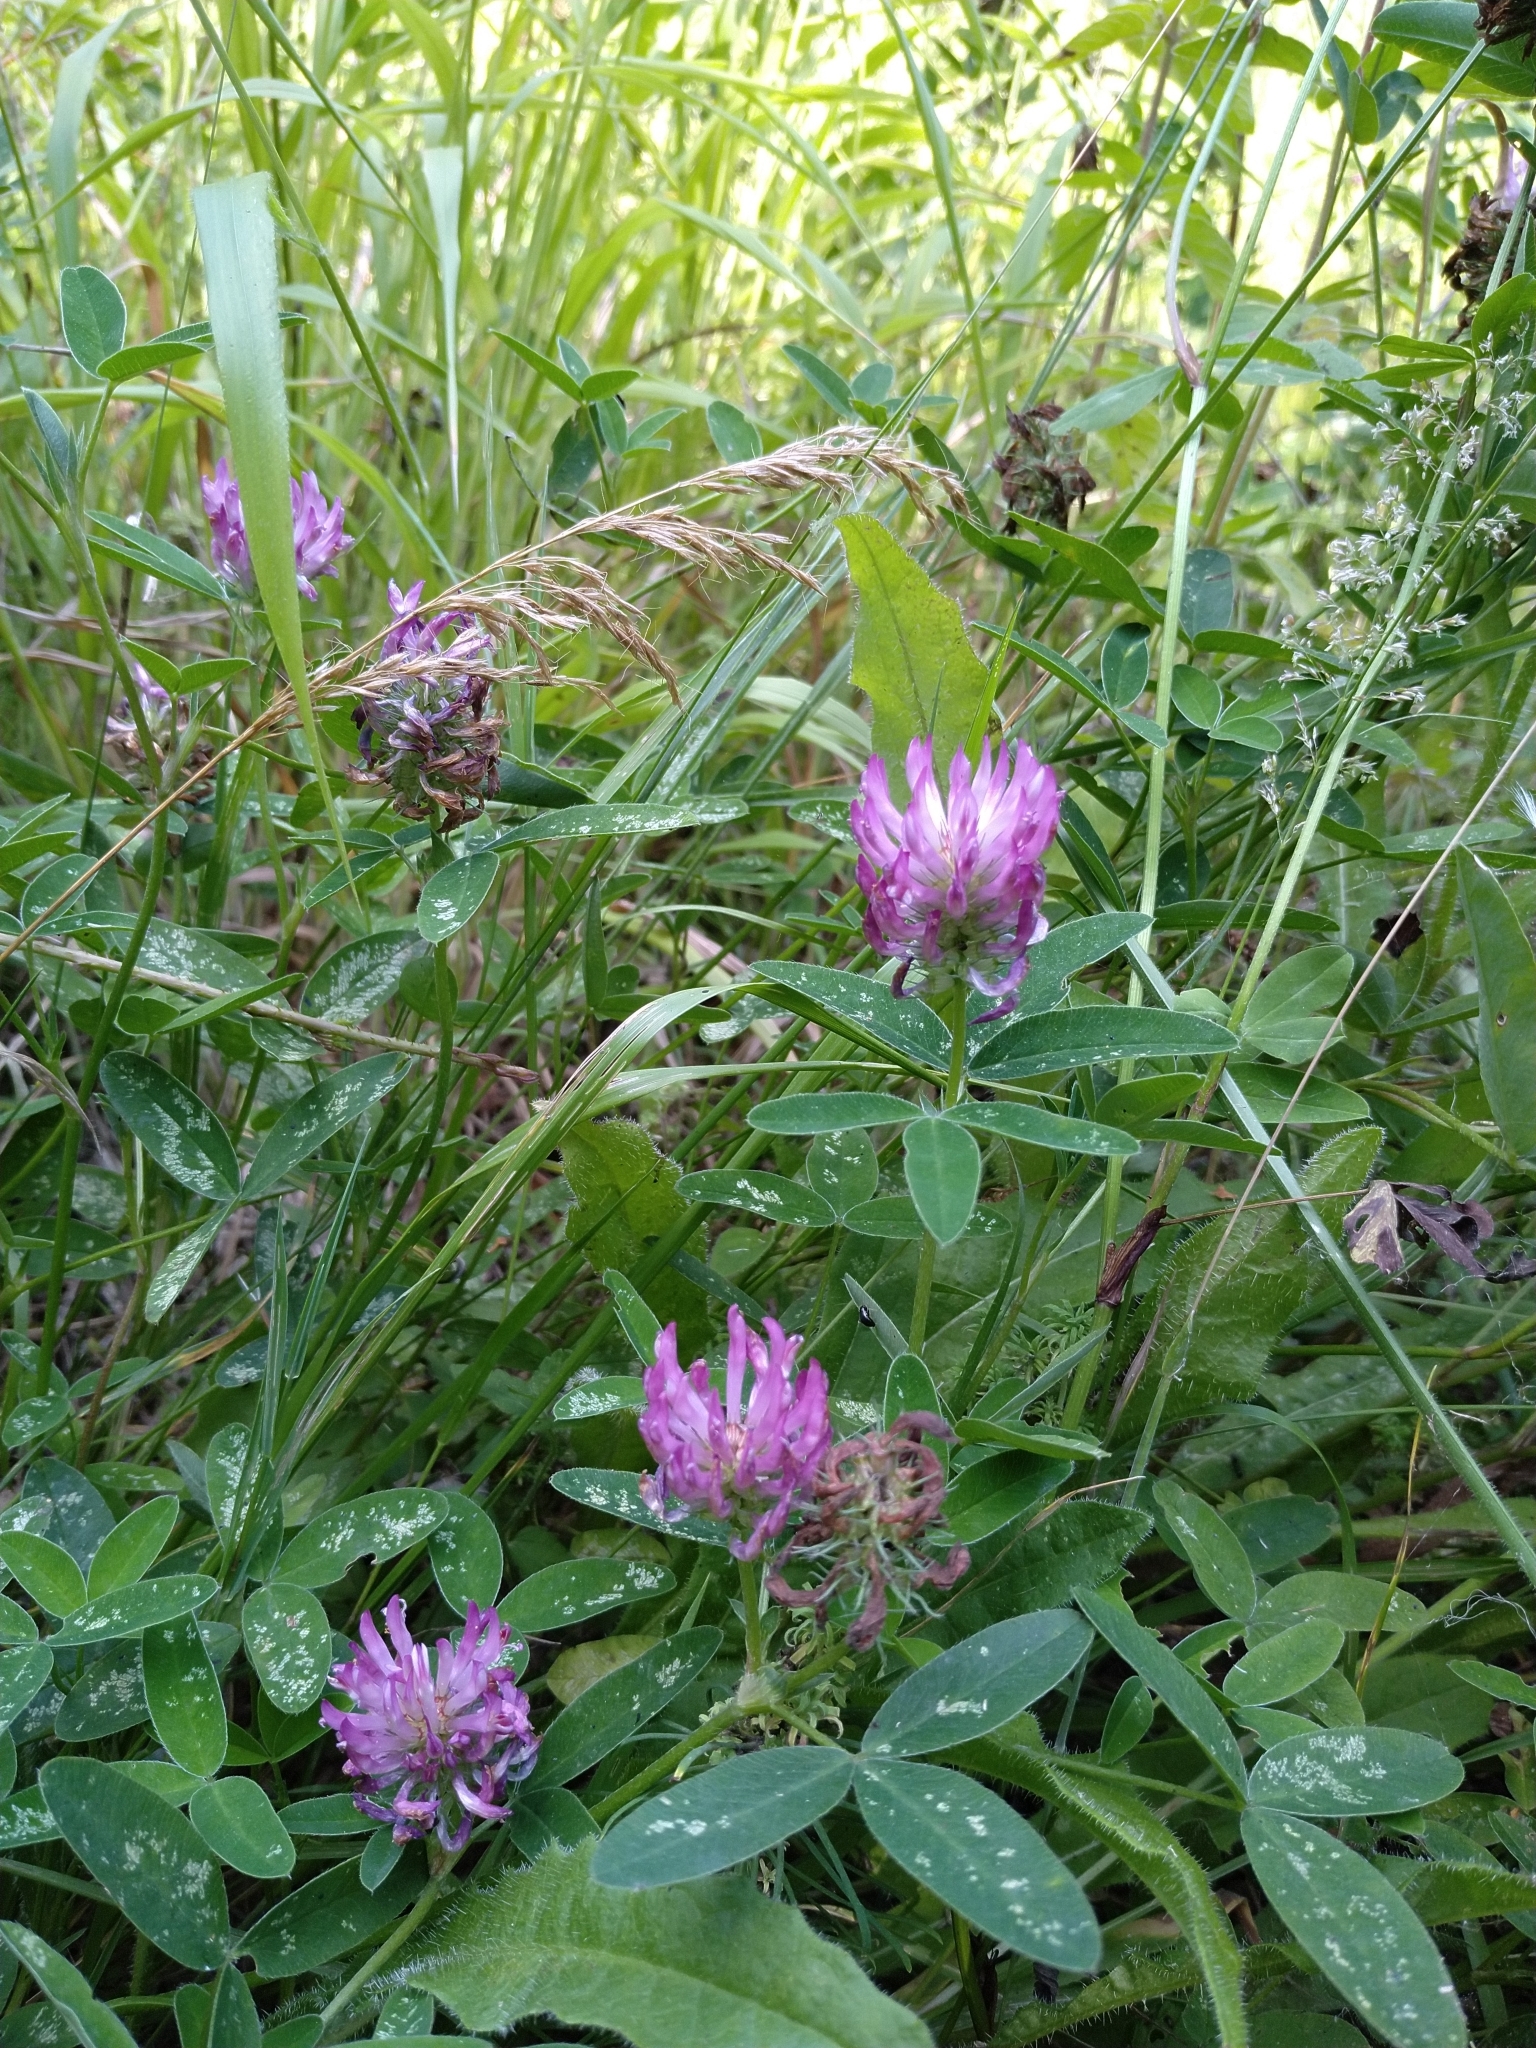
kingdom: Plantae
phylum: Tracheophyta
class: Magnoliopsida
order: Fabales
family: Fabaceae
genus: Trifolium
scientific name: Trifolium medium
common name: Zigzag clover
